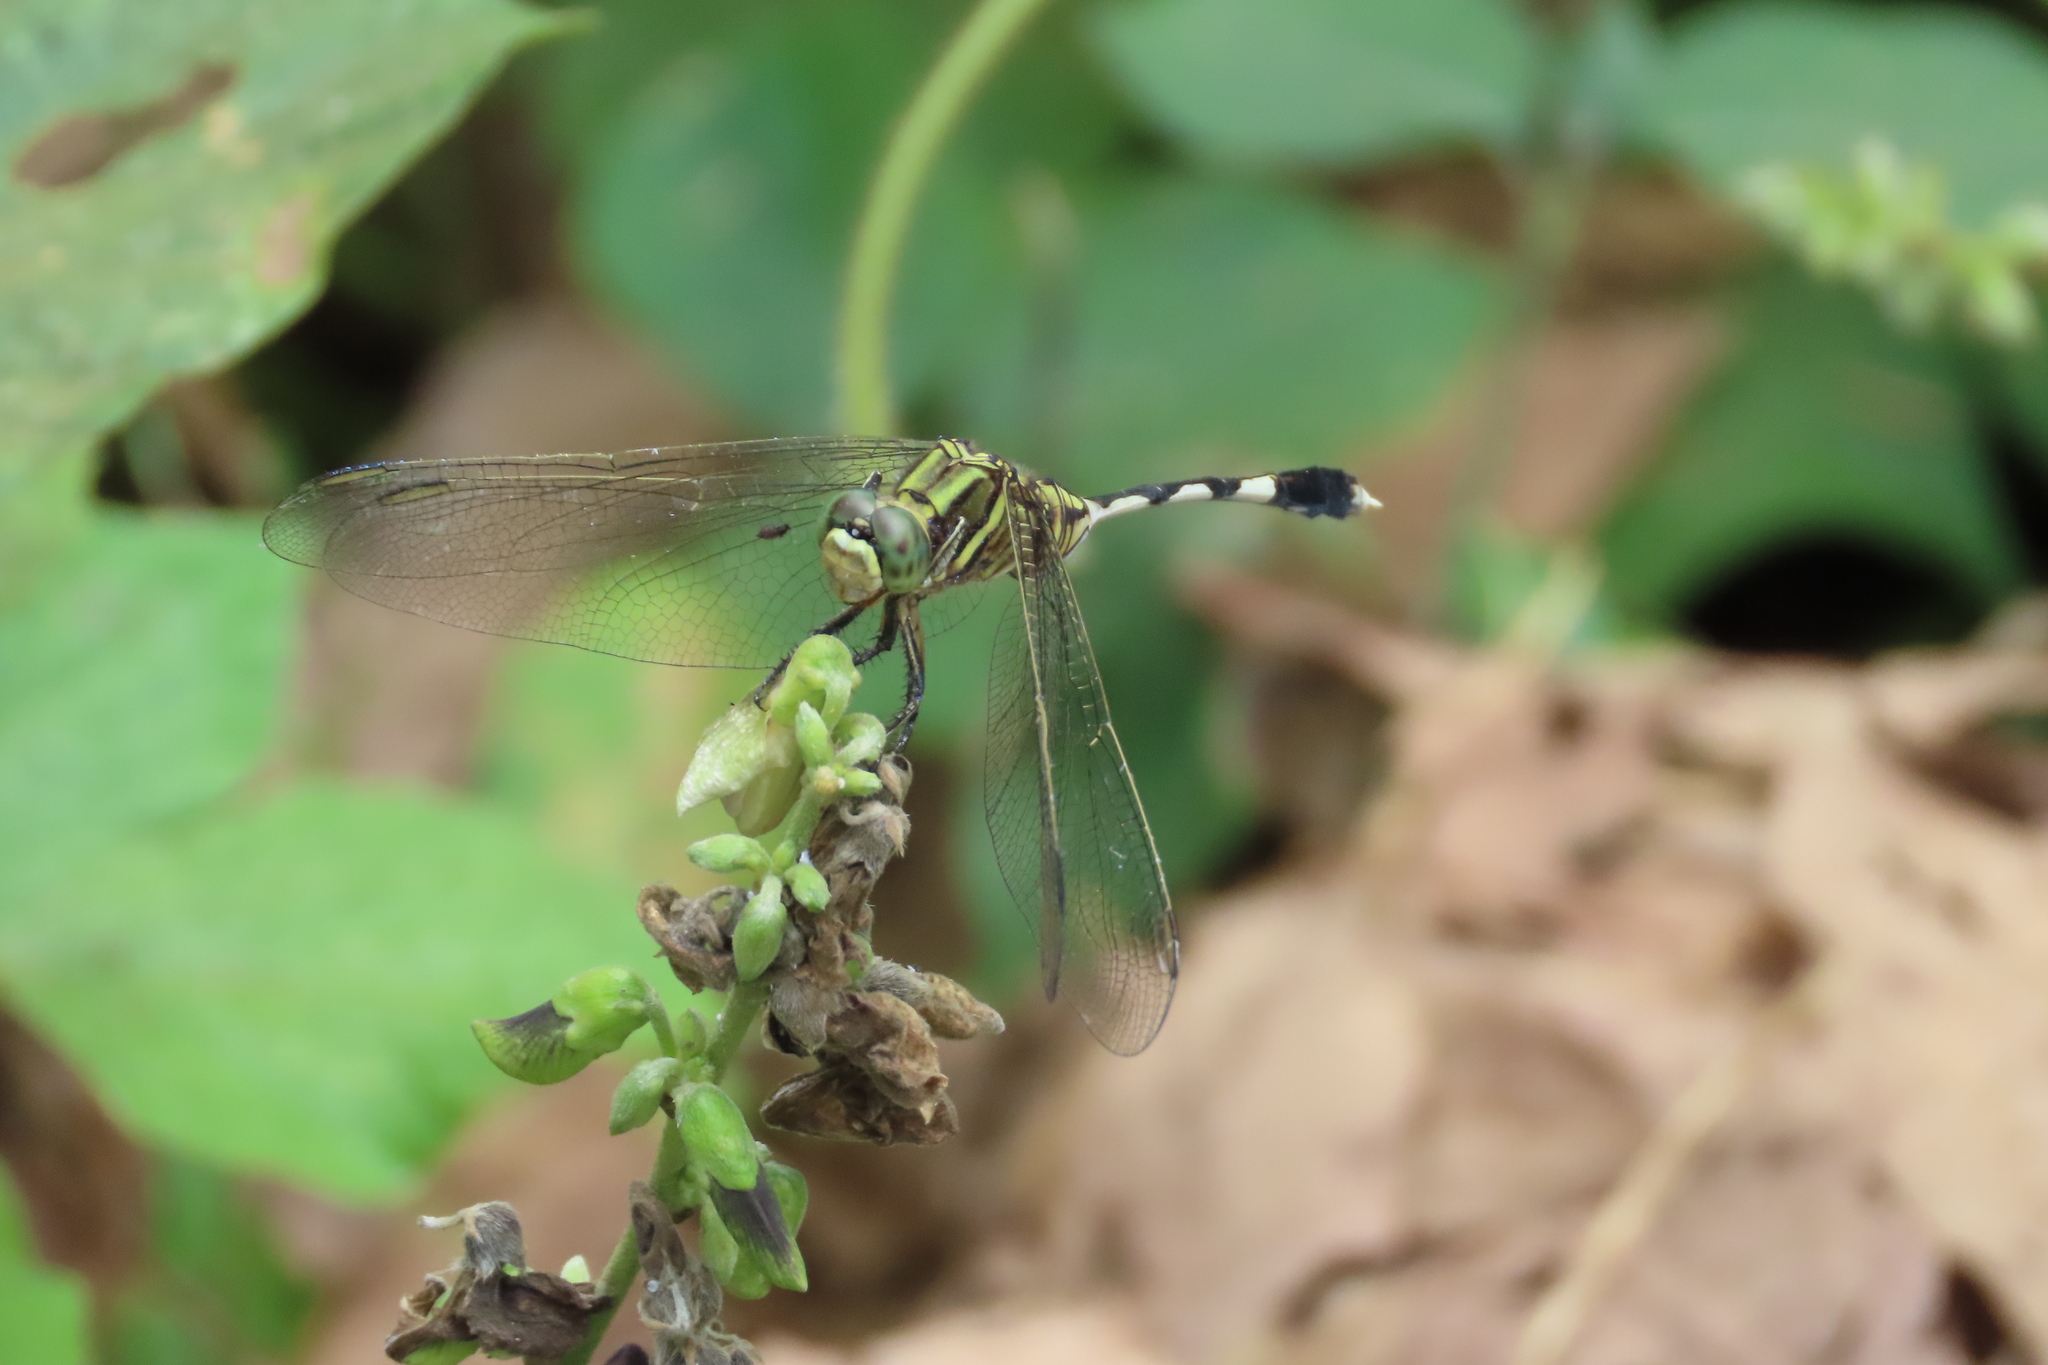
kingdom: Animalia
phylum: Arthropoda
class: Insecta
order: Odonata
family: Libellulidae
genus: Orthetrum
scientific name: Orthetrum sabina
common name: Slender skimmer
